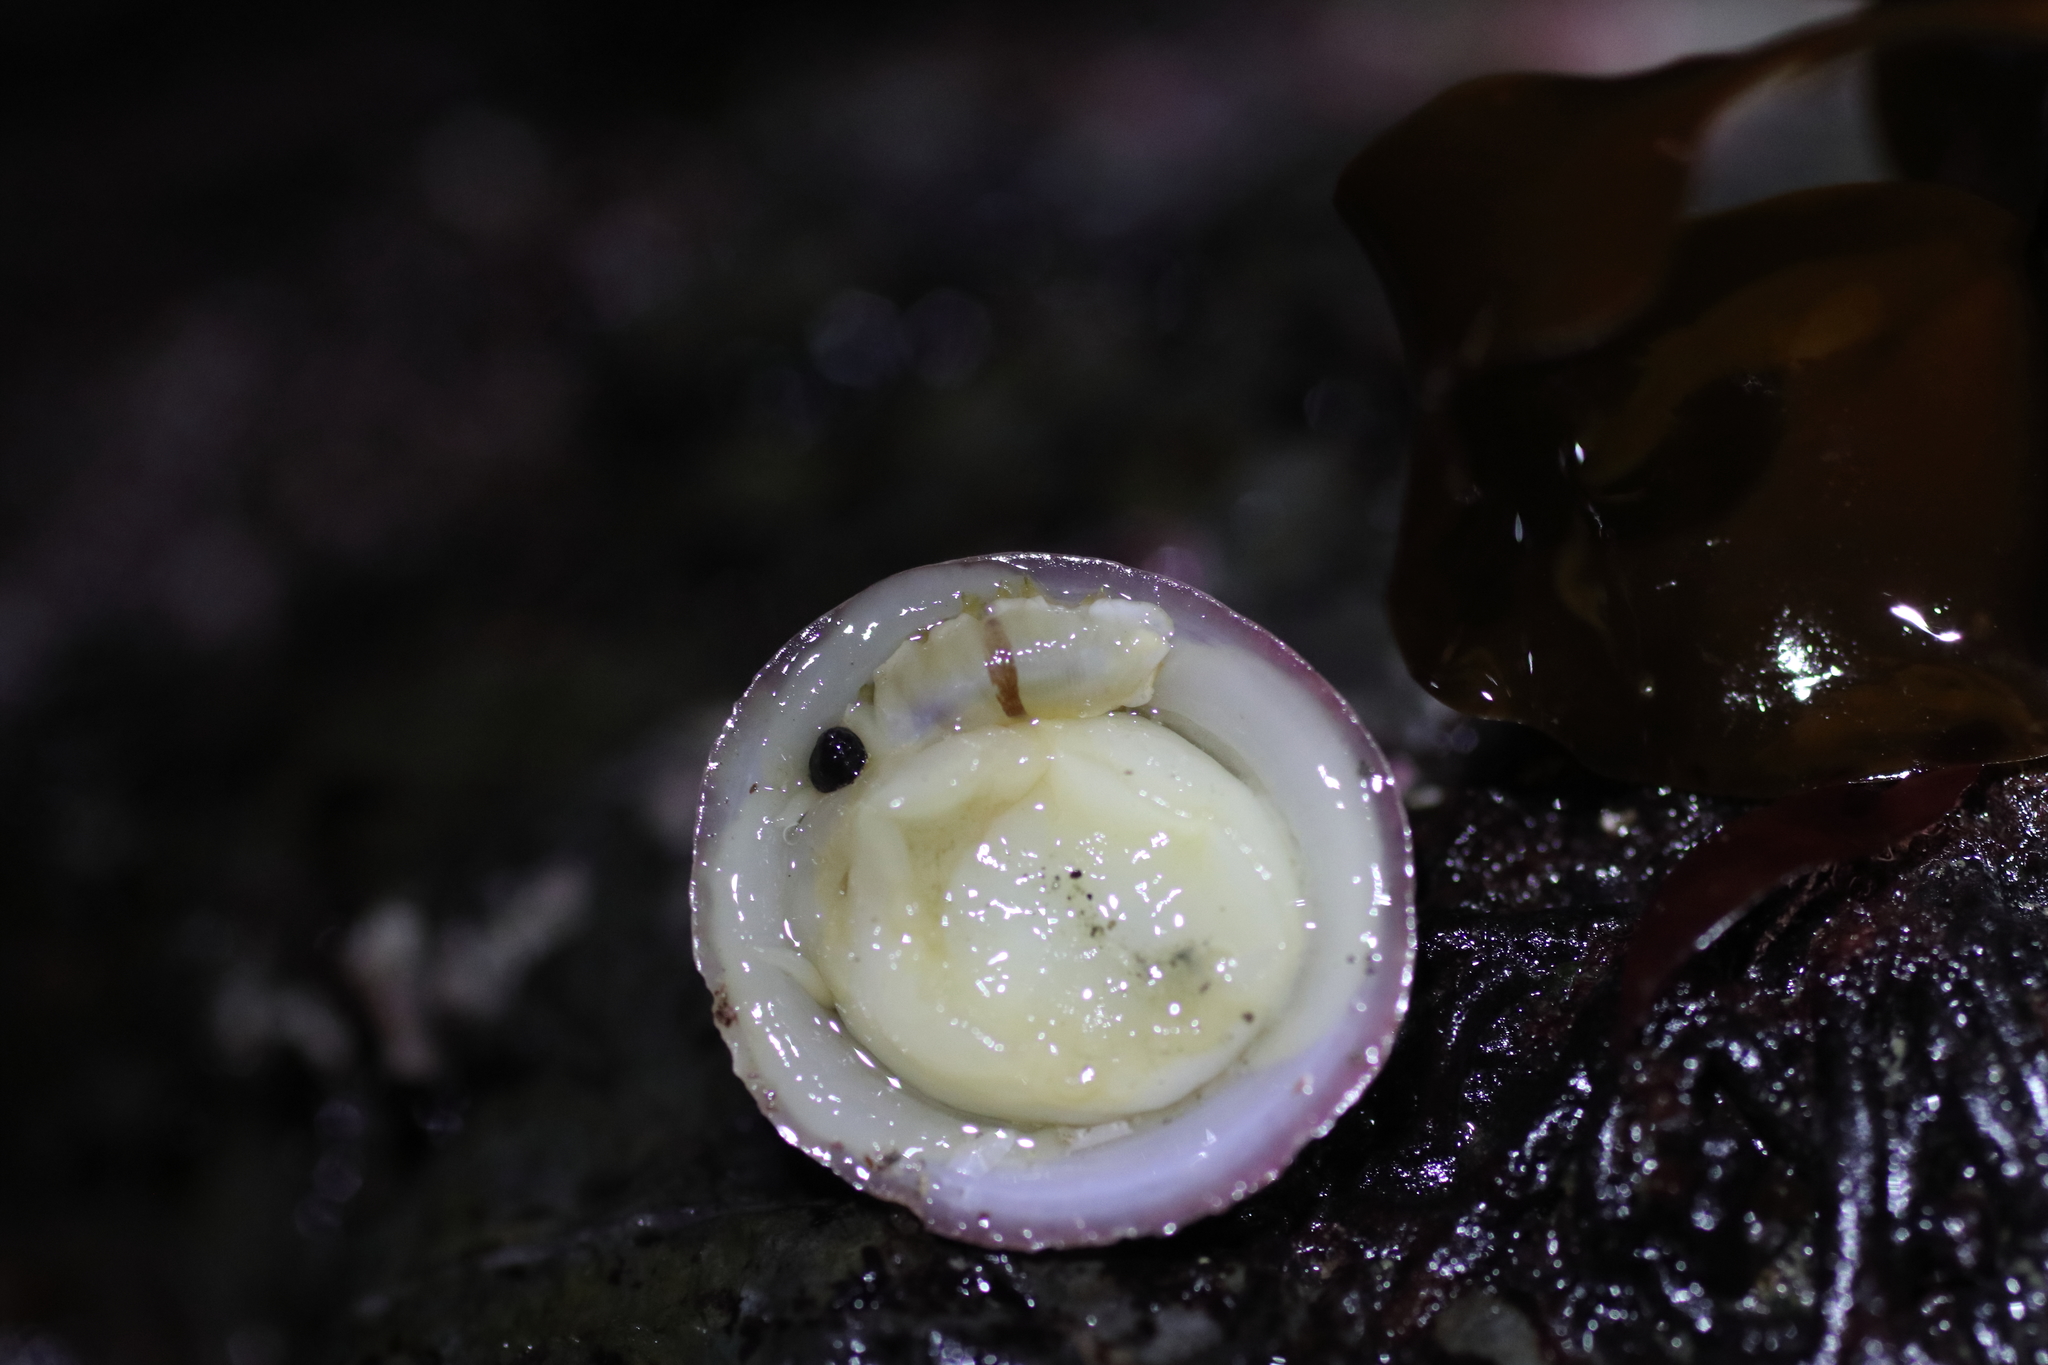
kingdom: Animalia
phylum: Annelida
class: Polychaeta
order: Phyllodocida
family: Polynoidae
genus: Arctonoe
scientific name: Arctonoe vittata
